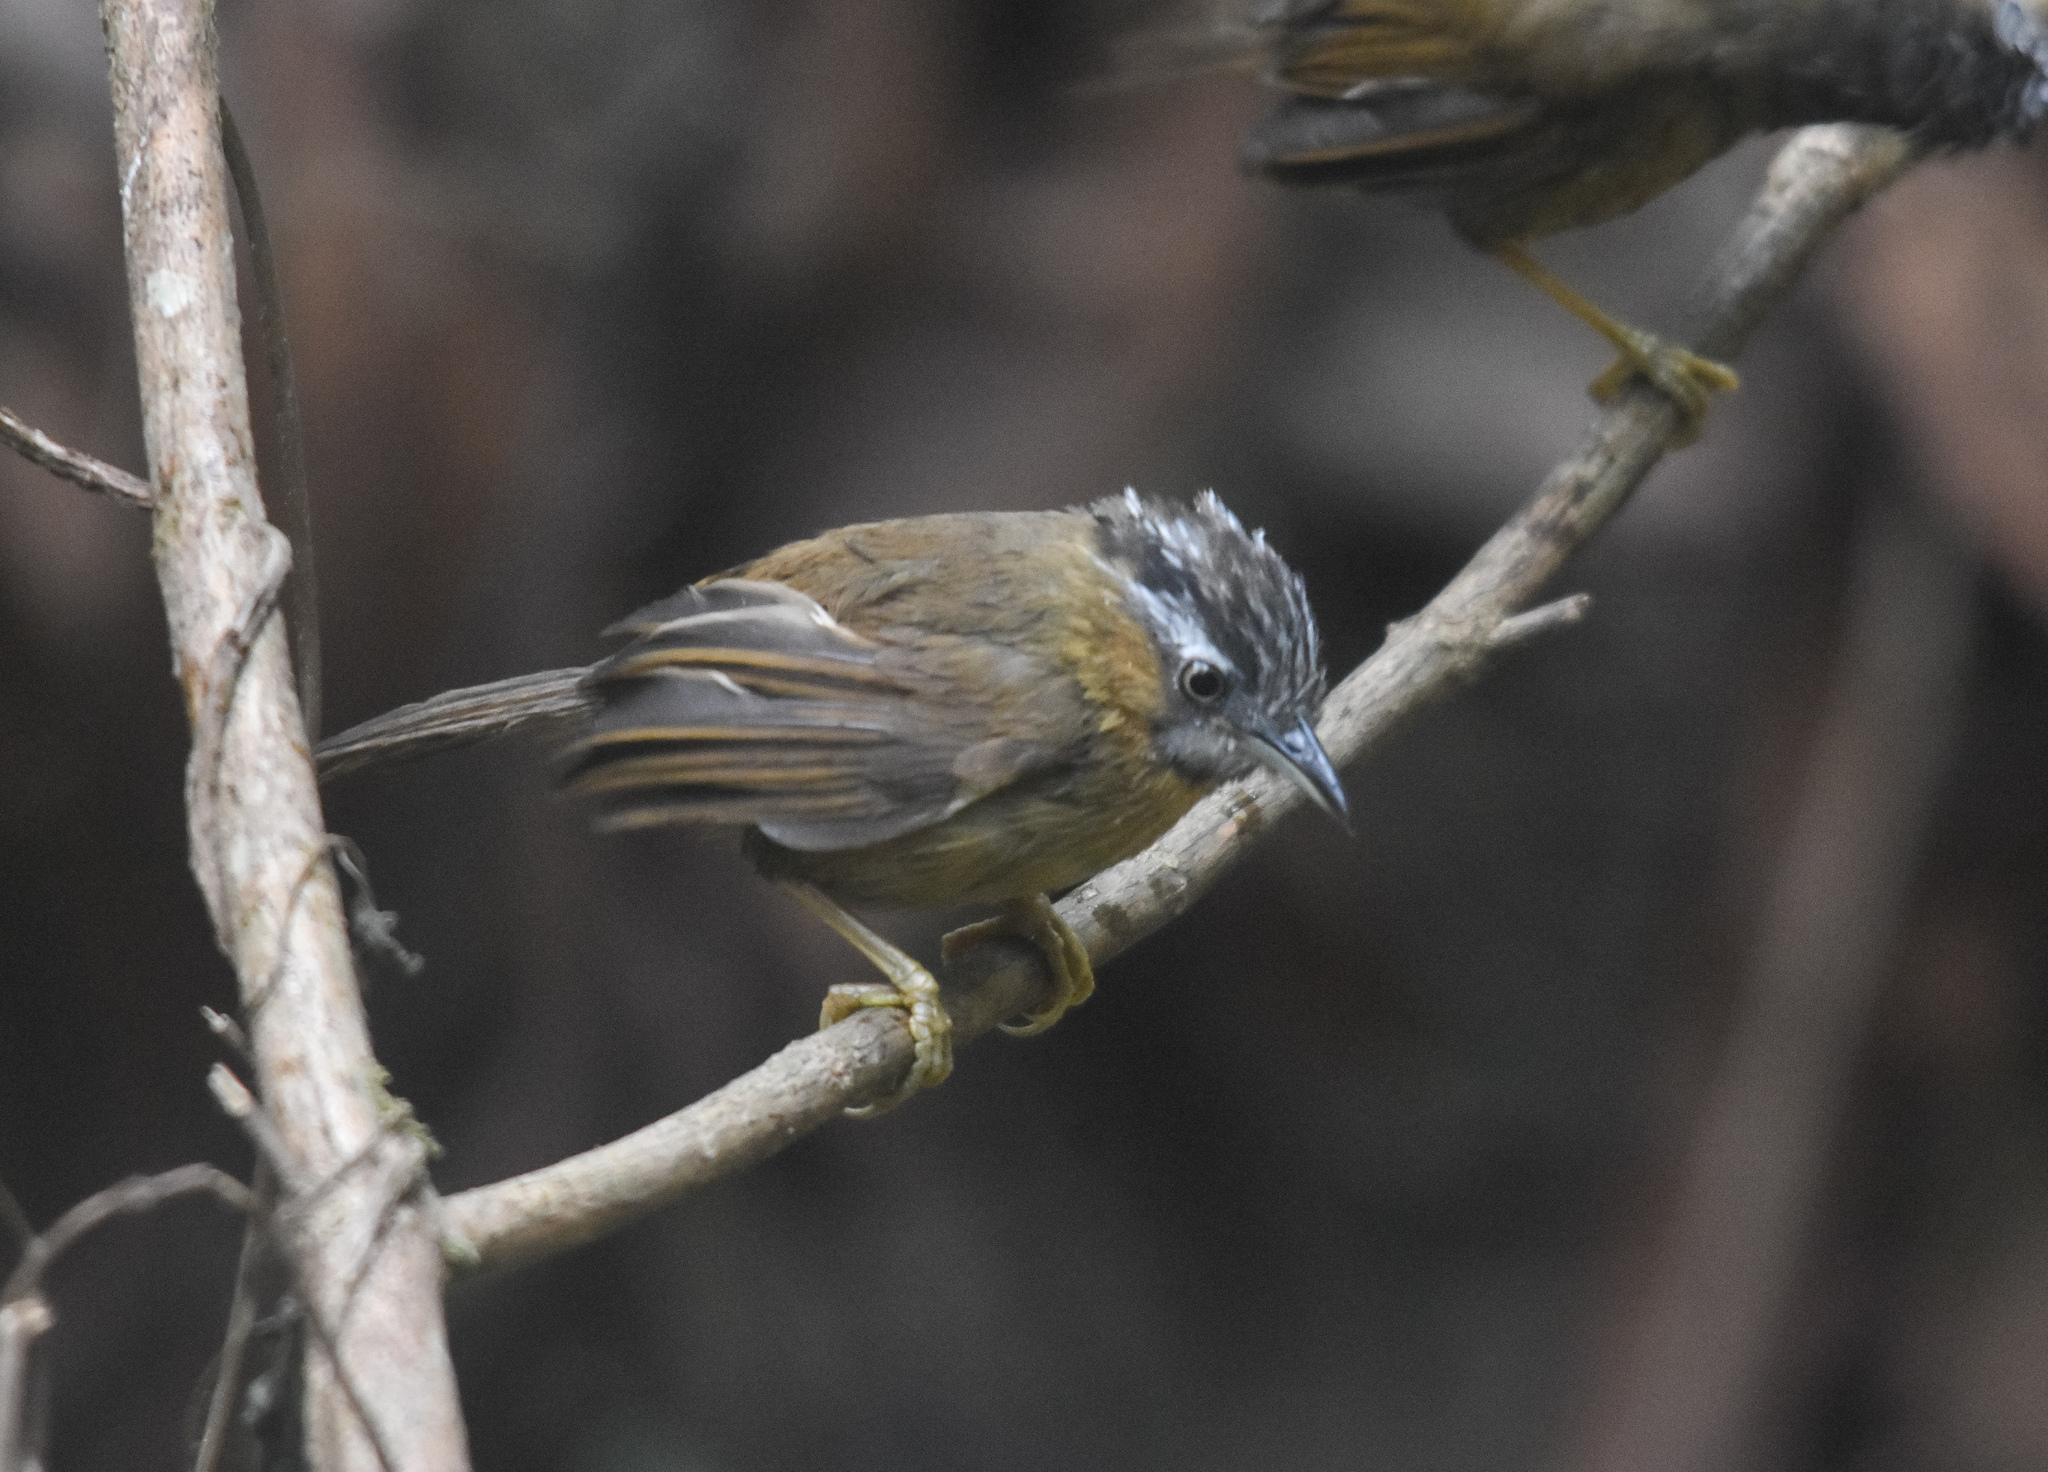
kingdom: Animalia
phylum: Chordata
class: Aves
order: Passeriformes
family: Timaliidae
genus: Stachyris
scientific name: Stachyris nigriceps
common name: Grey-throated babbler
